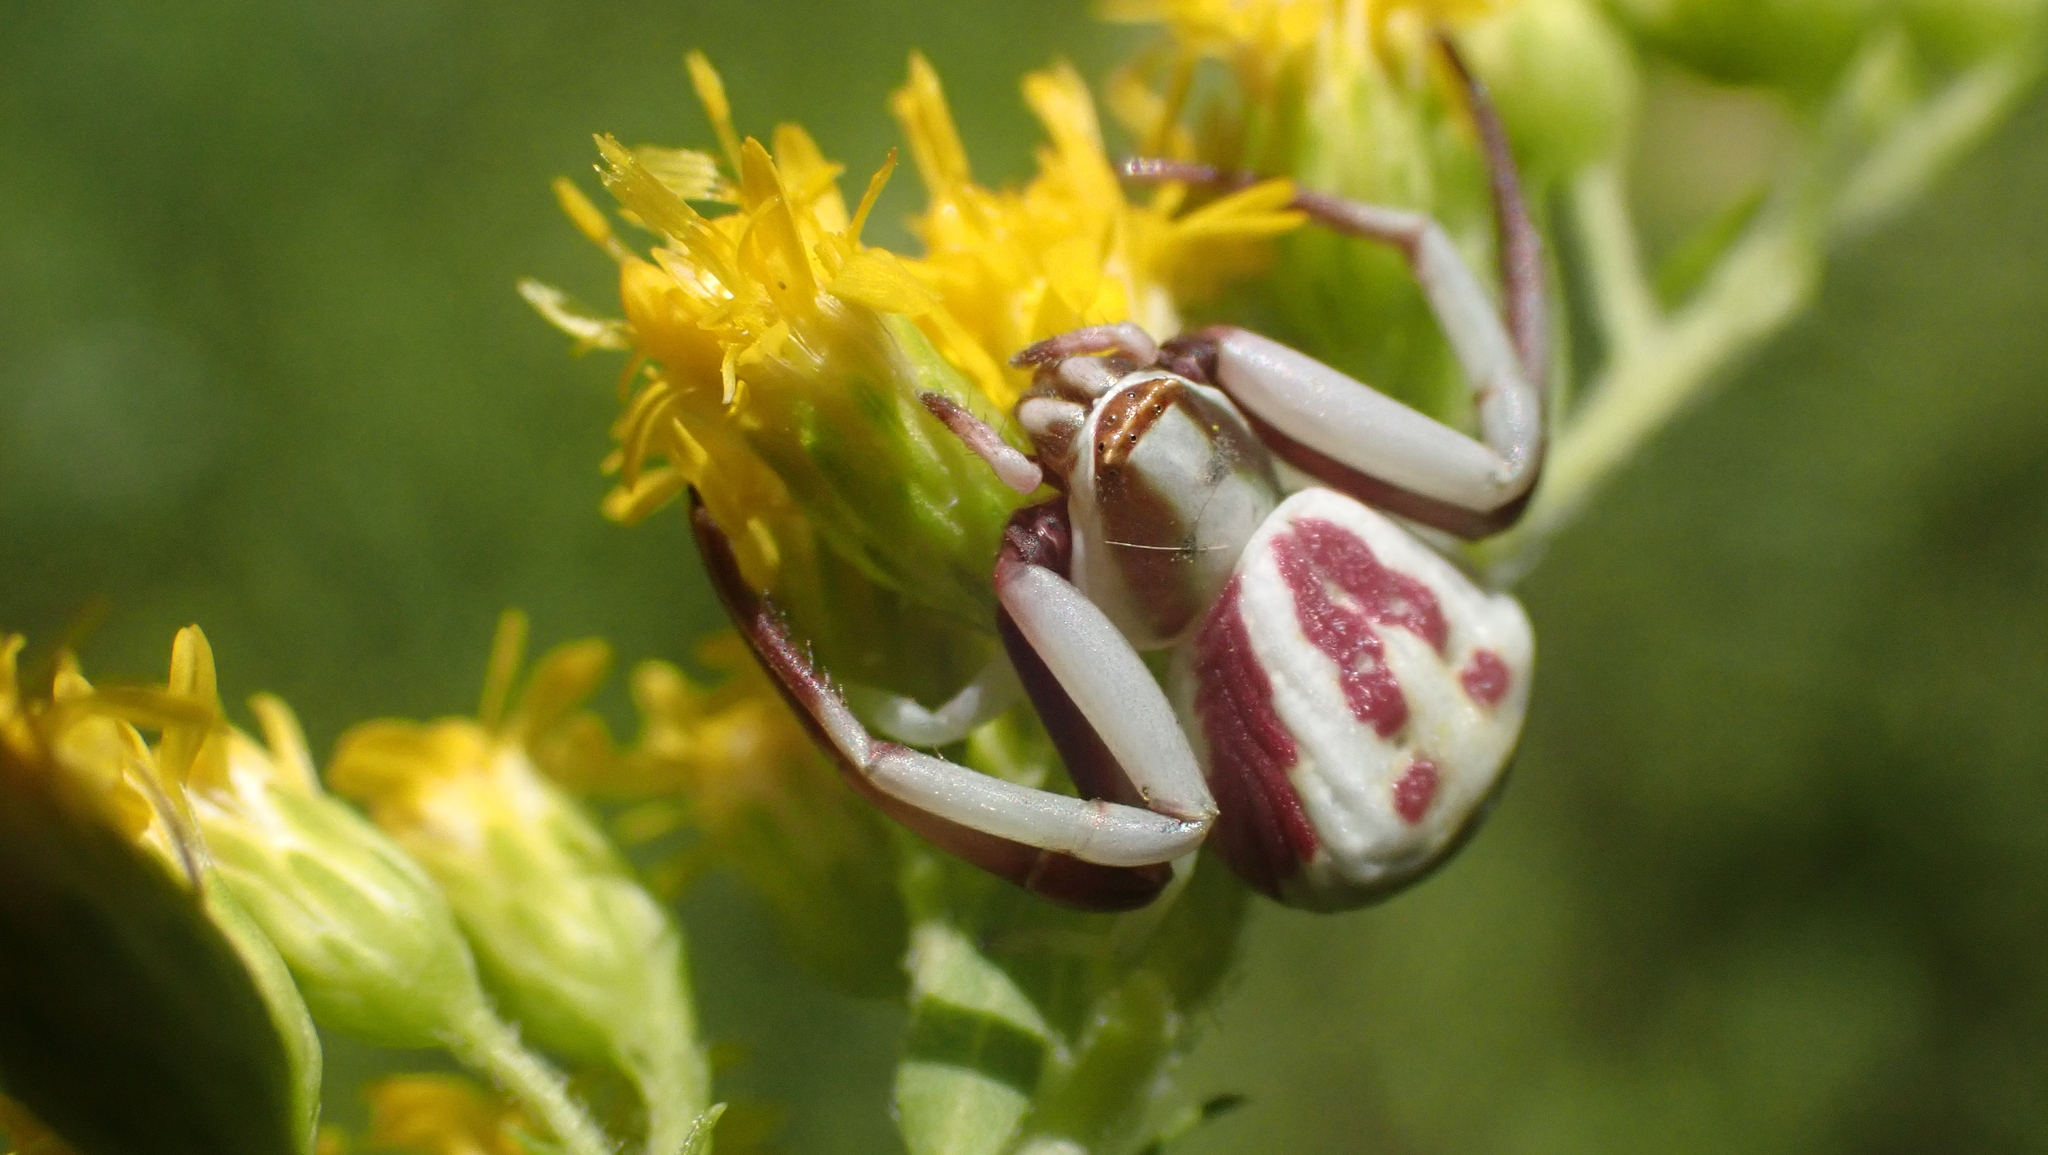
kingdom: Animalia
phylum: Arthropoda
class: Arachnida
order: Araneae
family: Thomisidae
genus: Misumenoides
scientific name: Misumenoides formosipes
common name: White-banded crab spider
